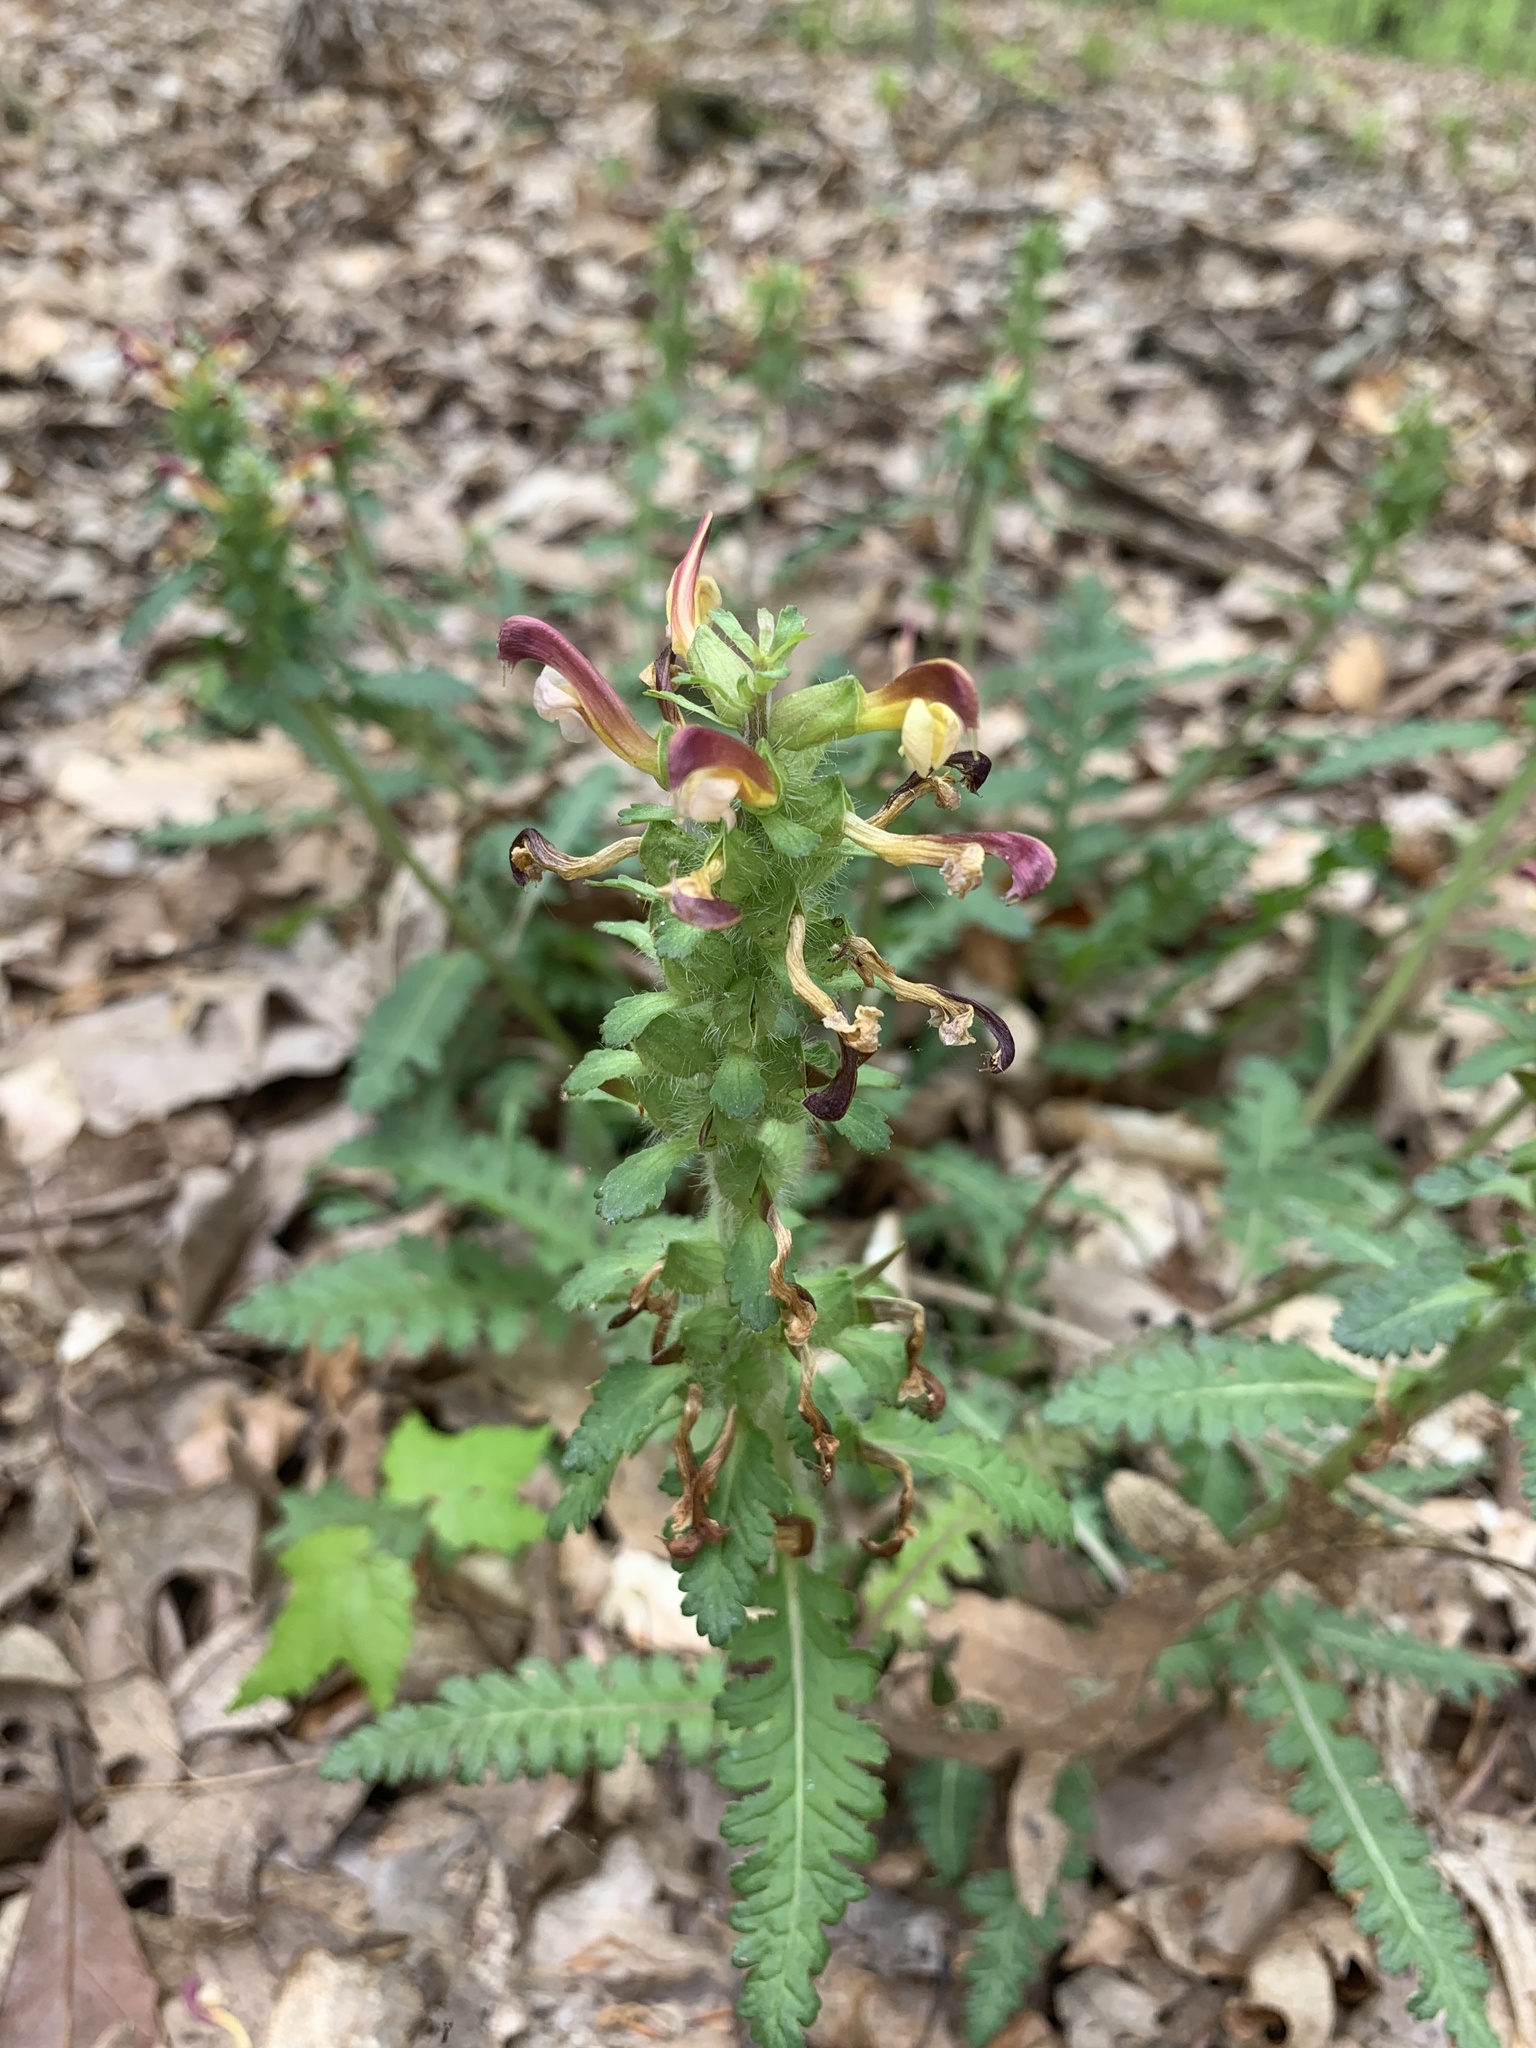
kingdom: Plantae
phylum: Tracheophyta
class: Magnoliopsida
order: Lamiales
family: Orobanchaceae
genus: Pedicularis
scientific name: Pedicularis canadensis
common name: Early lousewort
